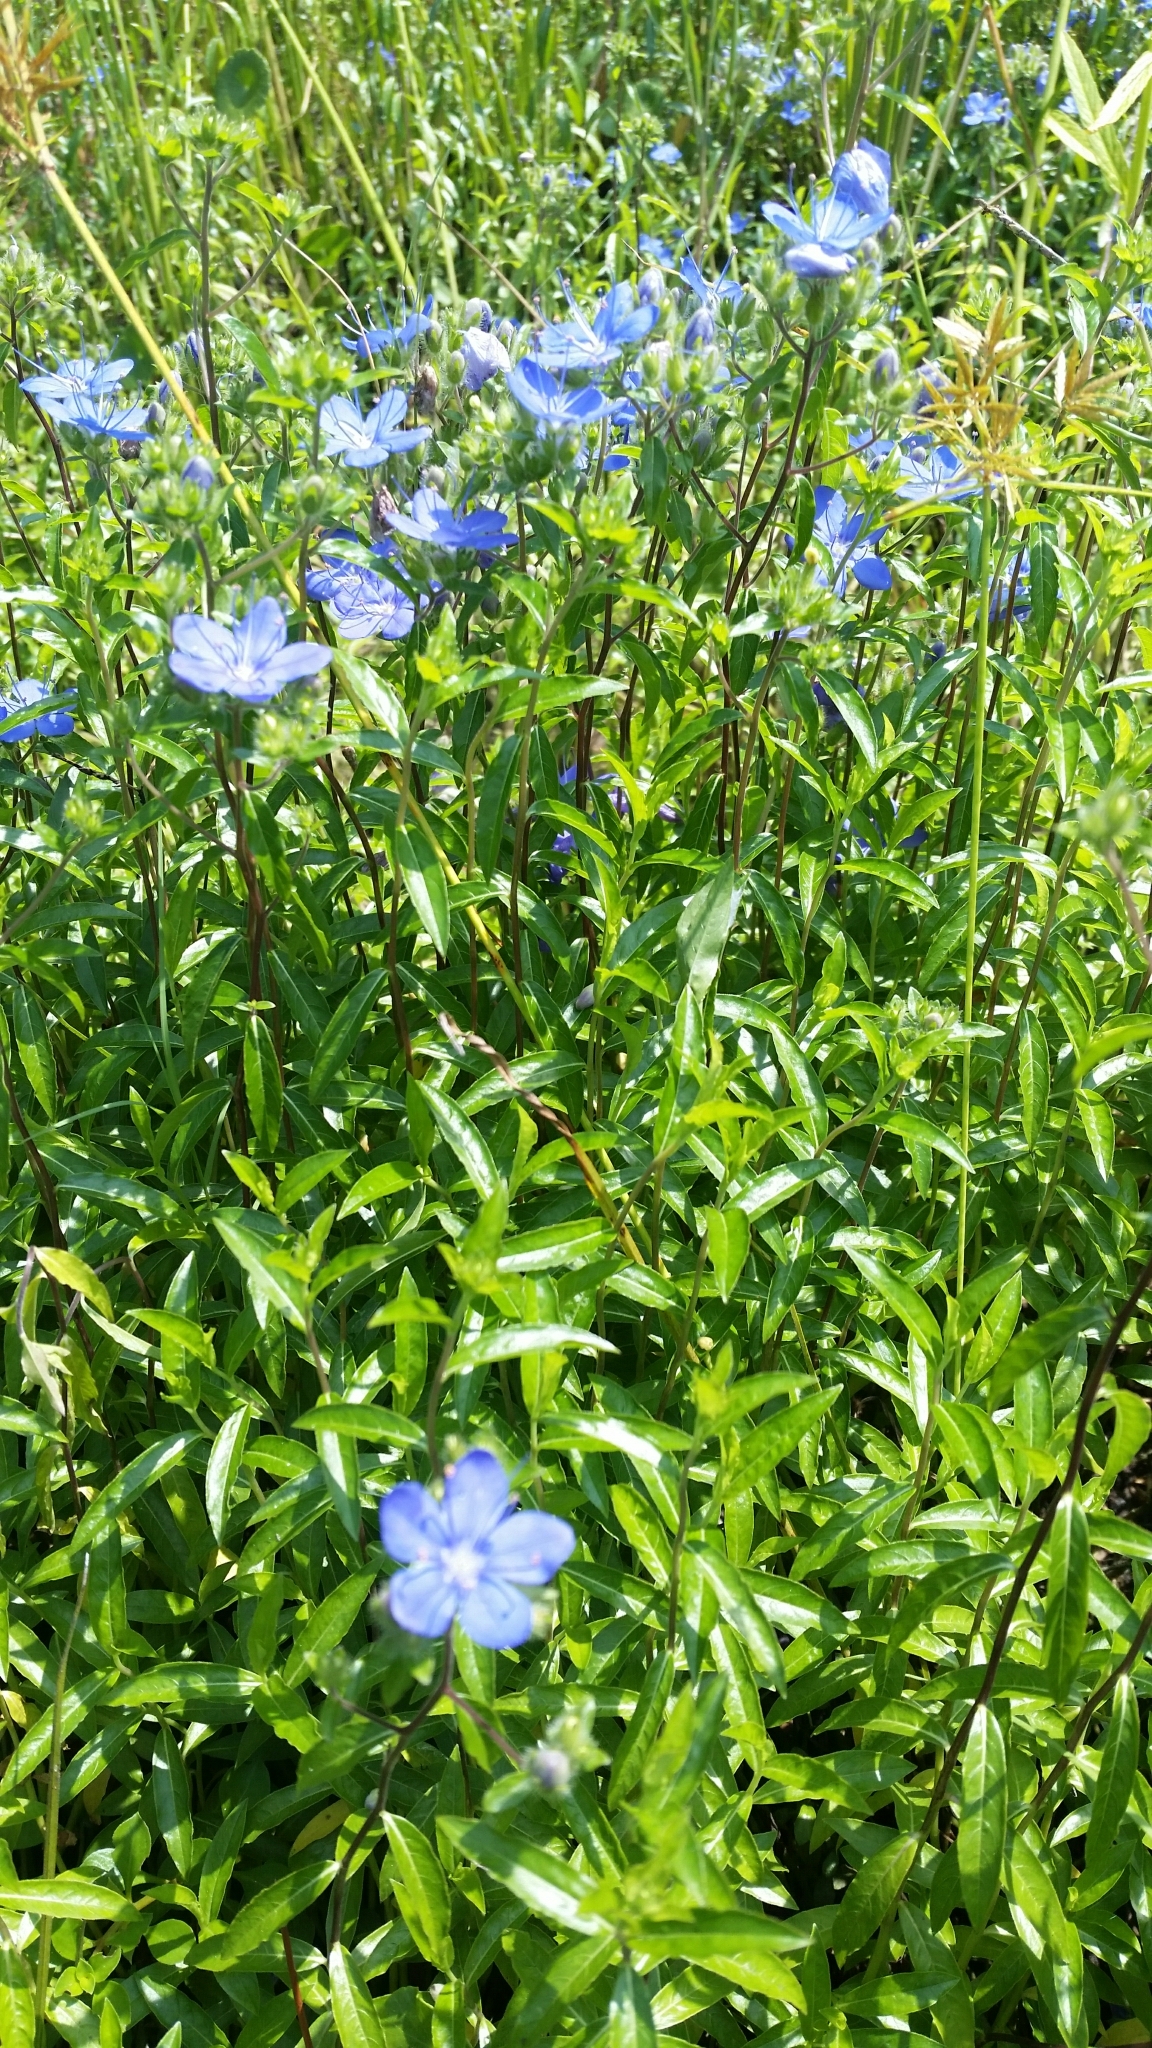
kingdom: Plantae
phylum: Tracheophyta
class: Magnoliopsida
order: Solanales
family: Hydroleaceae
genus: Hydrolea
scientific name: Hydrolea corymbosa
